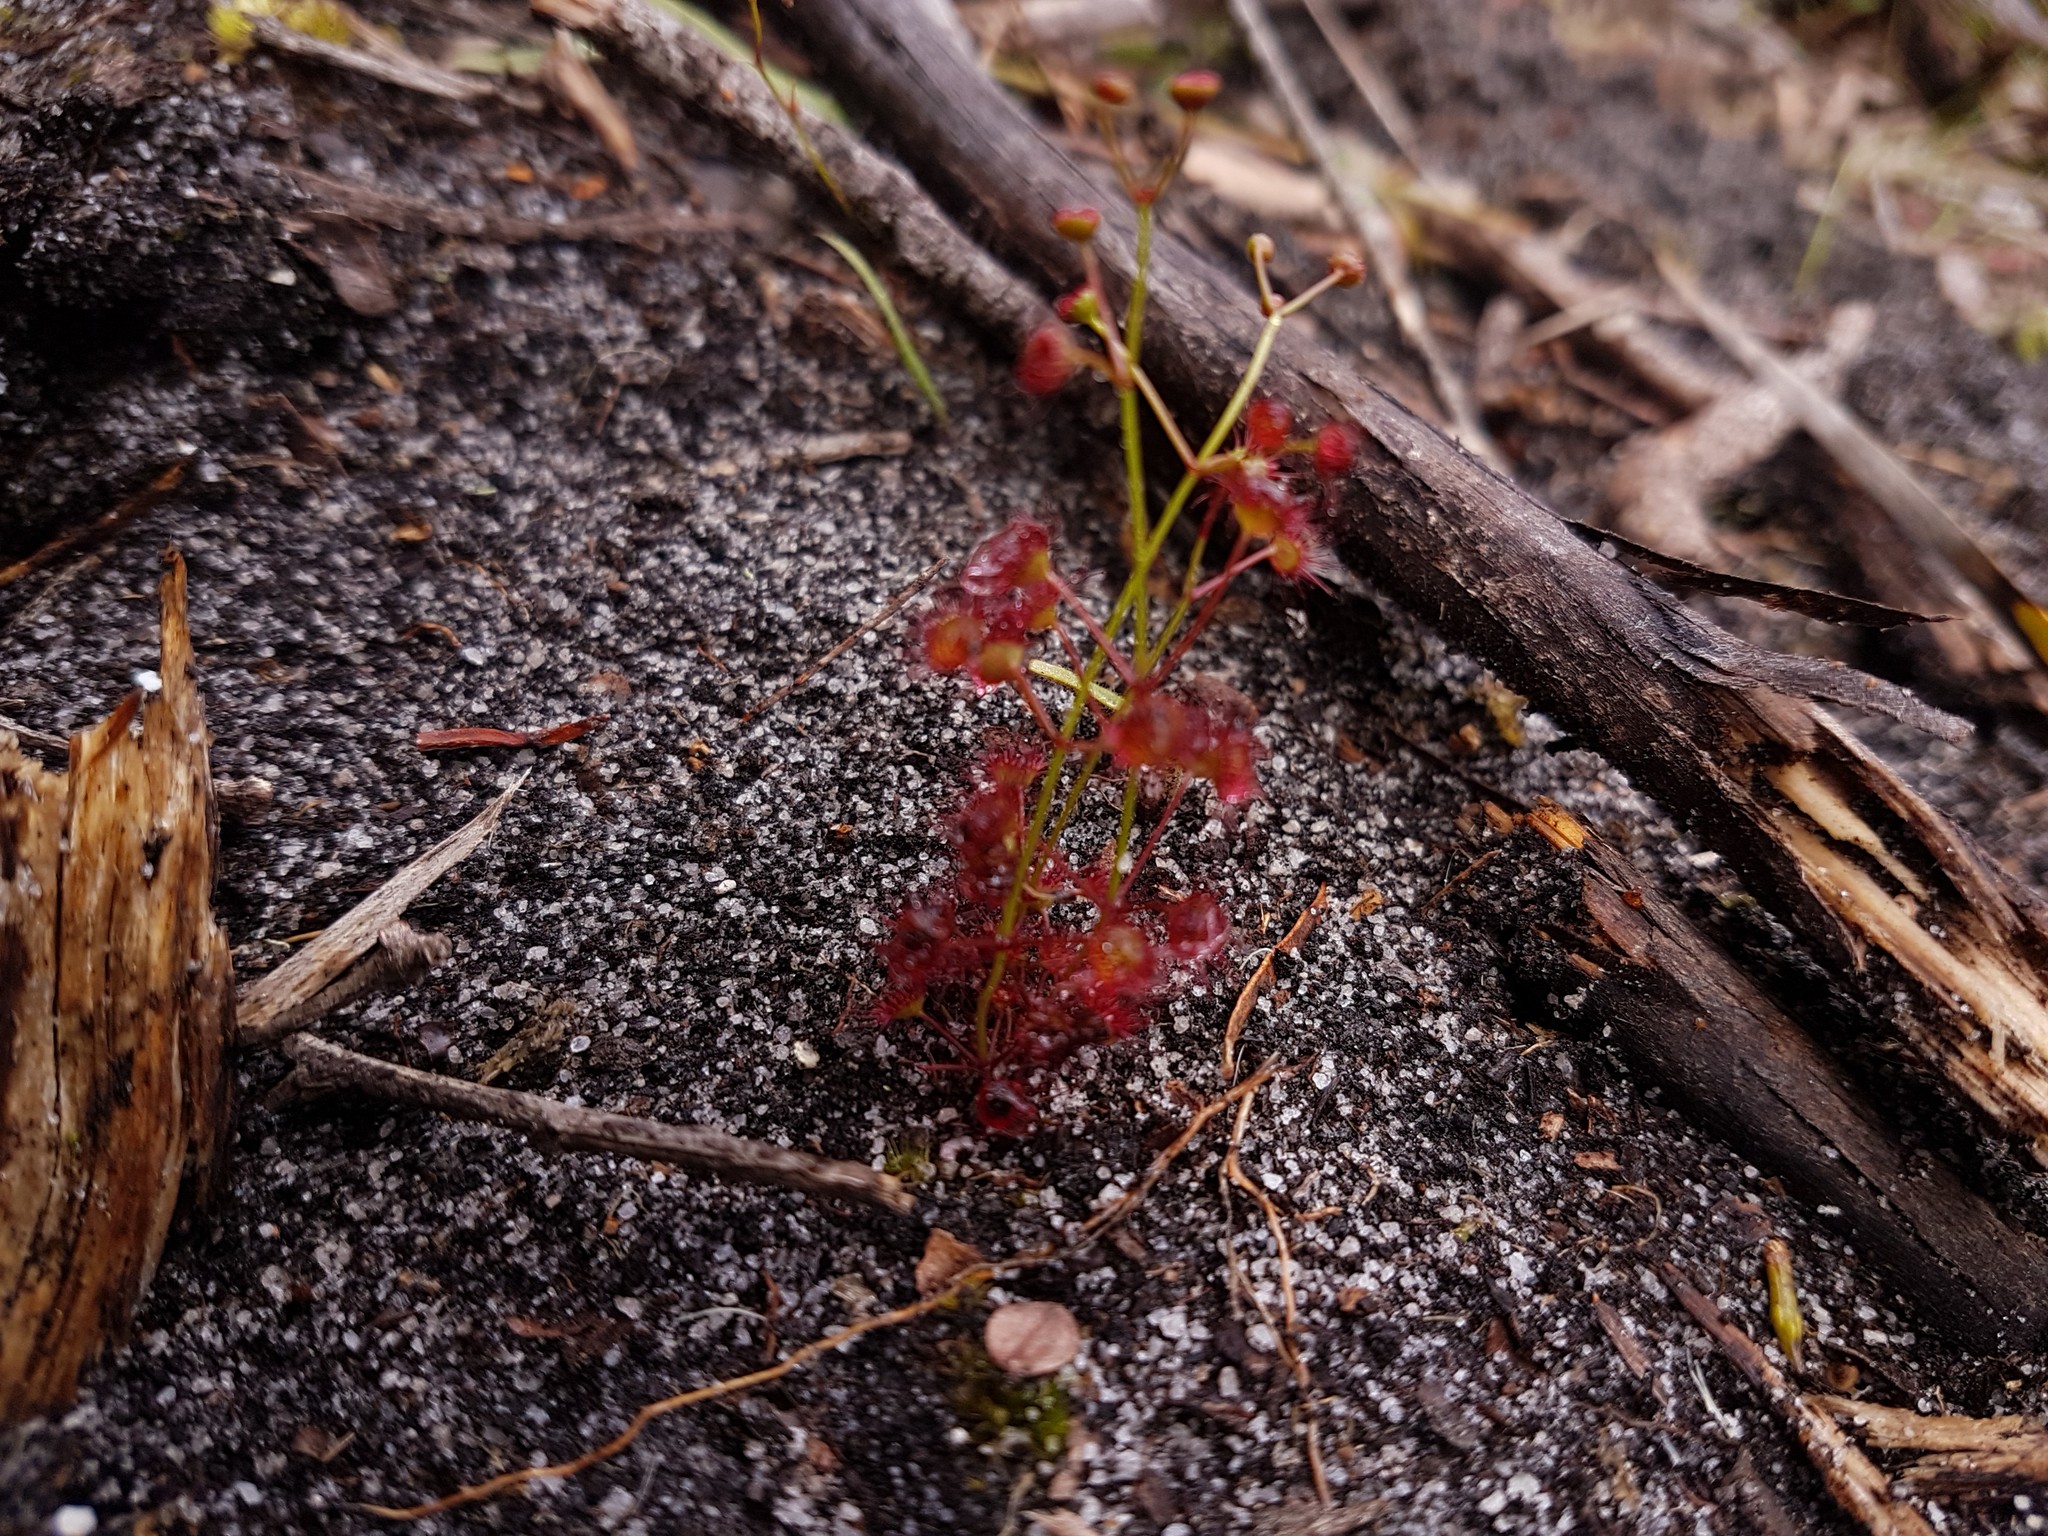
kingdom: Plantae
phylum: Tracheophyta
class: Magnoliopsida
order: Caryophyllales
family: Droseraceae
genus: Drosera
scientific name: Drosera fimbriata
